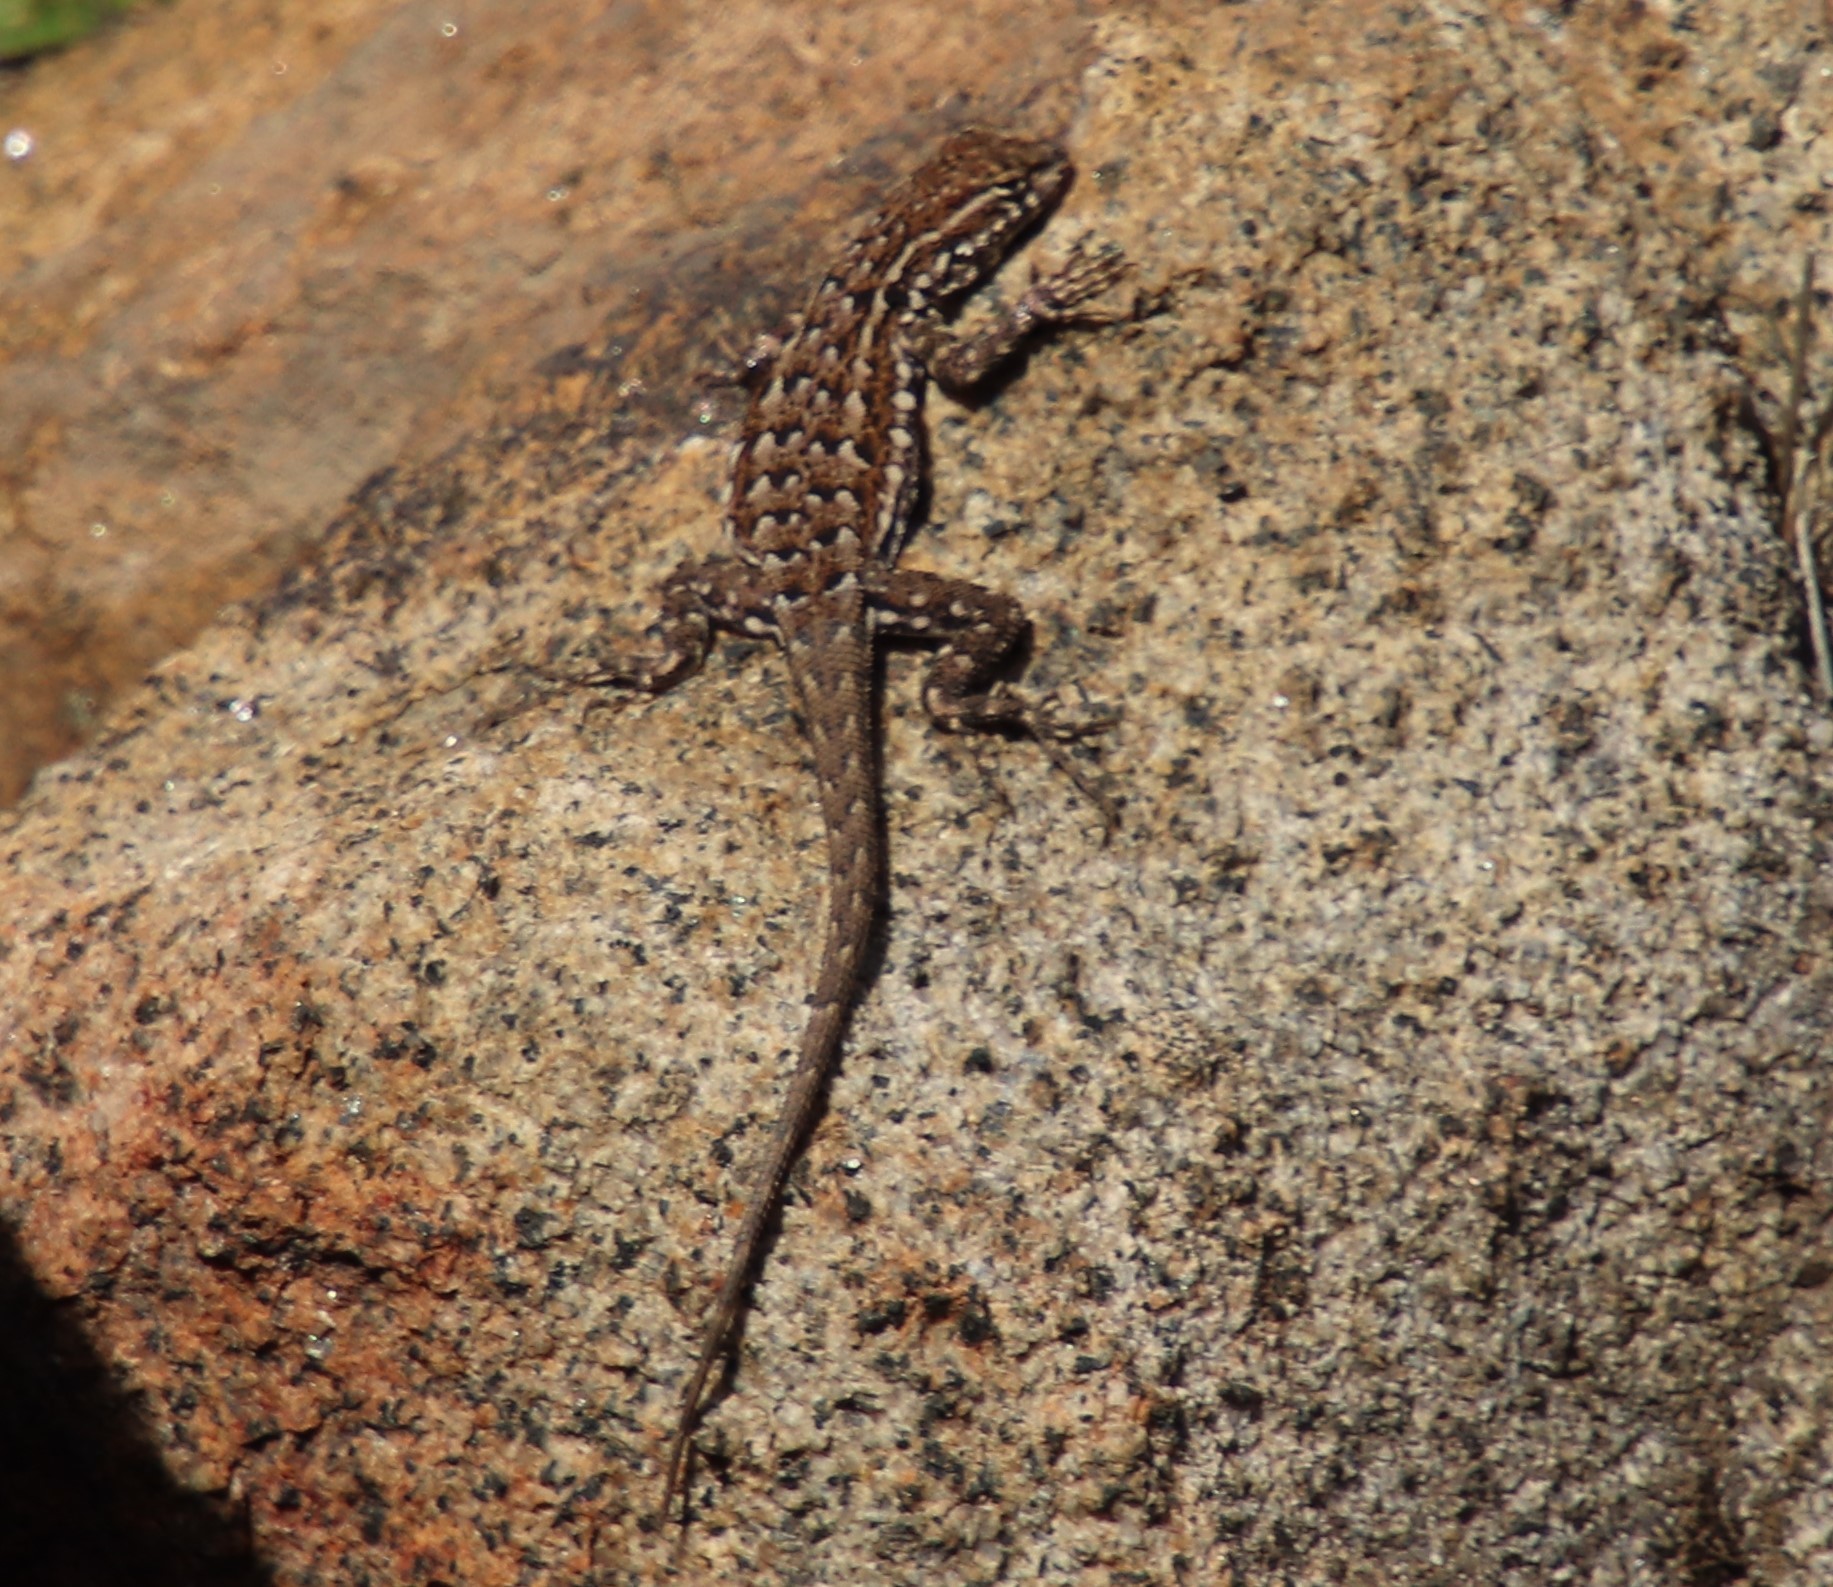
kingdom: Animalia
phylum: Chordata
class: Squamata
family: Phrynosomatidae
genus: Uta
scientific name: Uta stansburiana
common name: Side-blotched lizard
